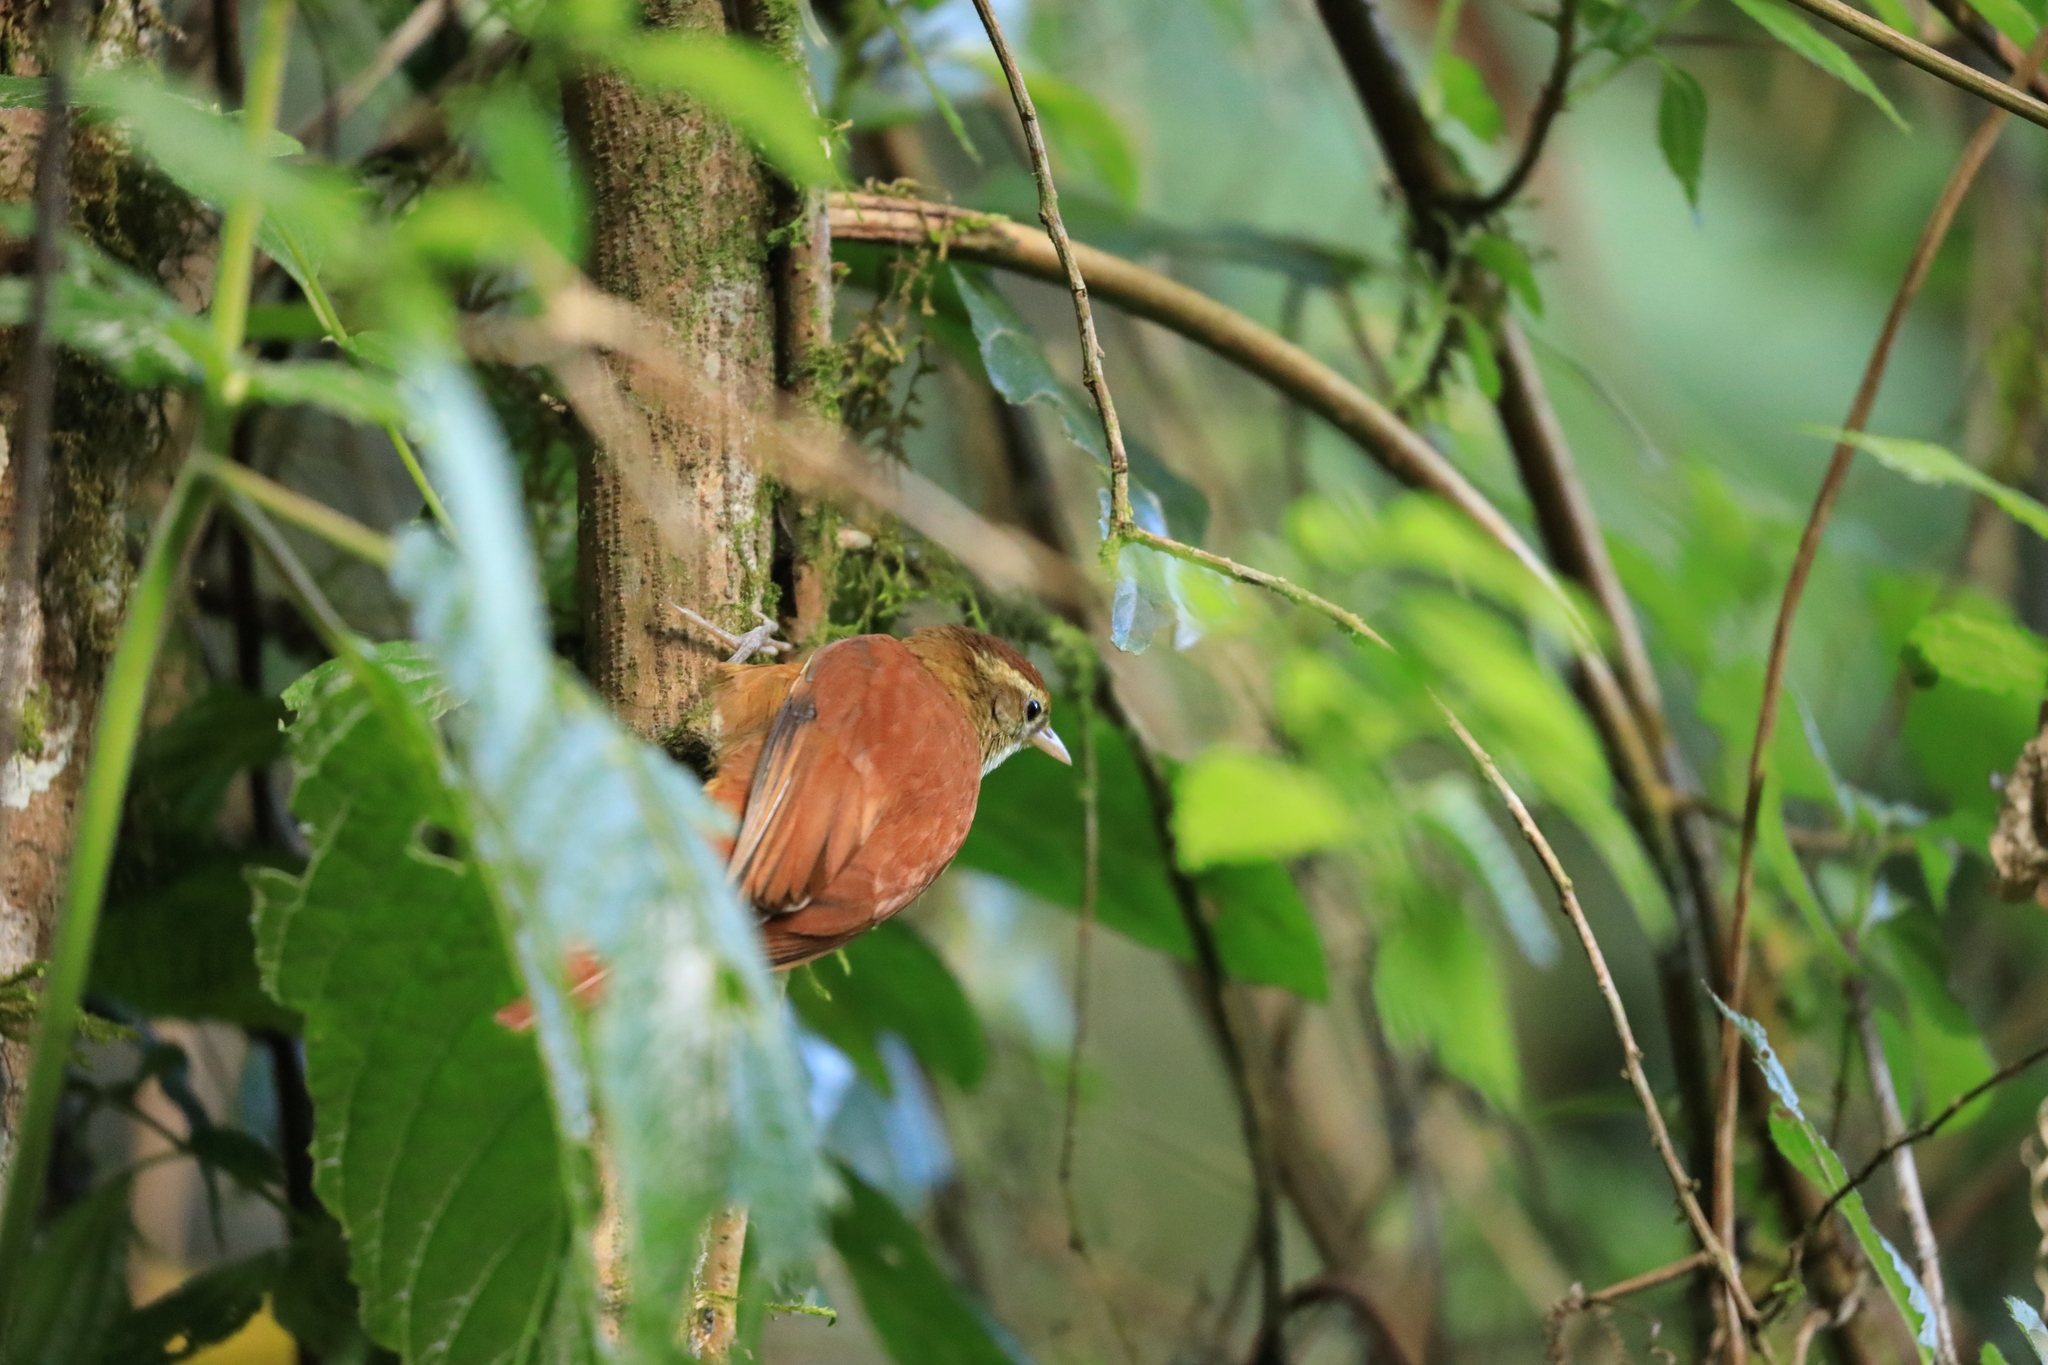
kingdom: Animalia
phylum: Chordata
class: Aves
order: Passeriformes
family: Furnariidae
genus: Margarornis
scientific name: Margarornis rubiginosus
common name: Ruddy treerunner
